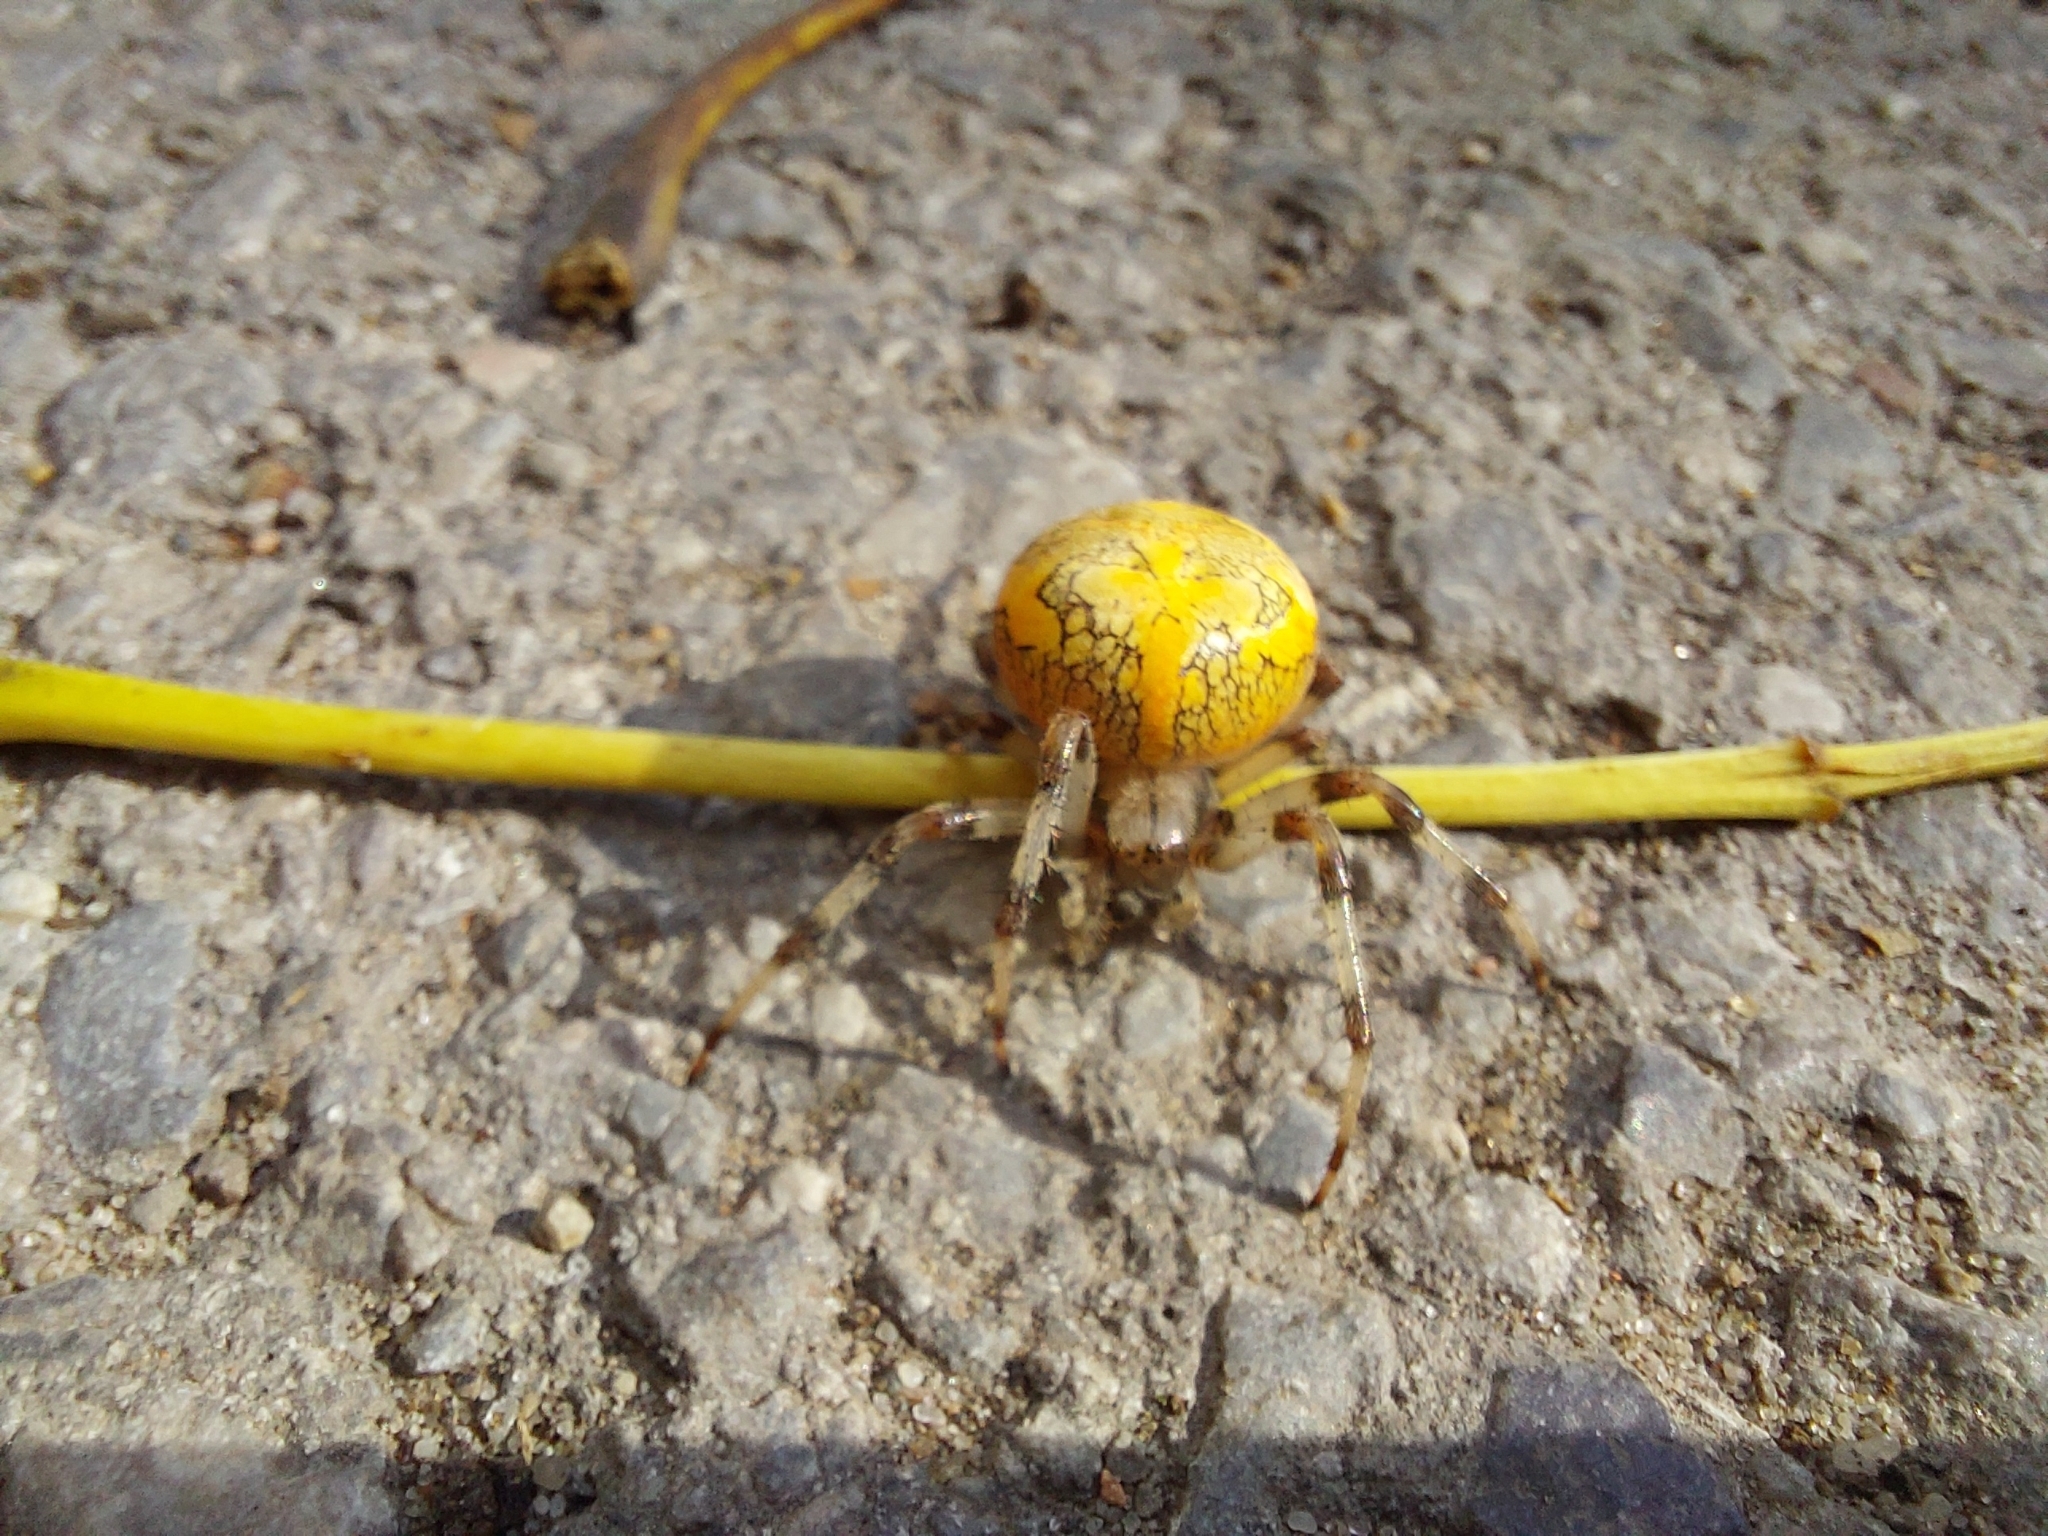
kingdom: Animalia
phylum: Arthropoda
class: Arachnida
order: Araneae
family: Araneidae
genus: Araneus
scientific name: Araneus marmoreus
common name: Marbled orbweaver
